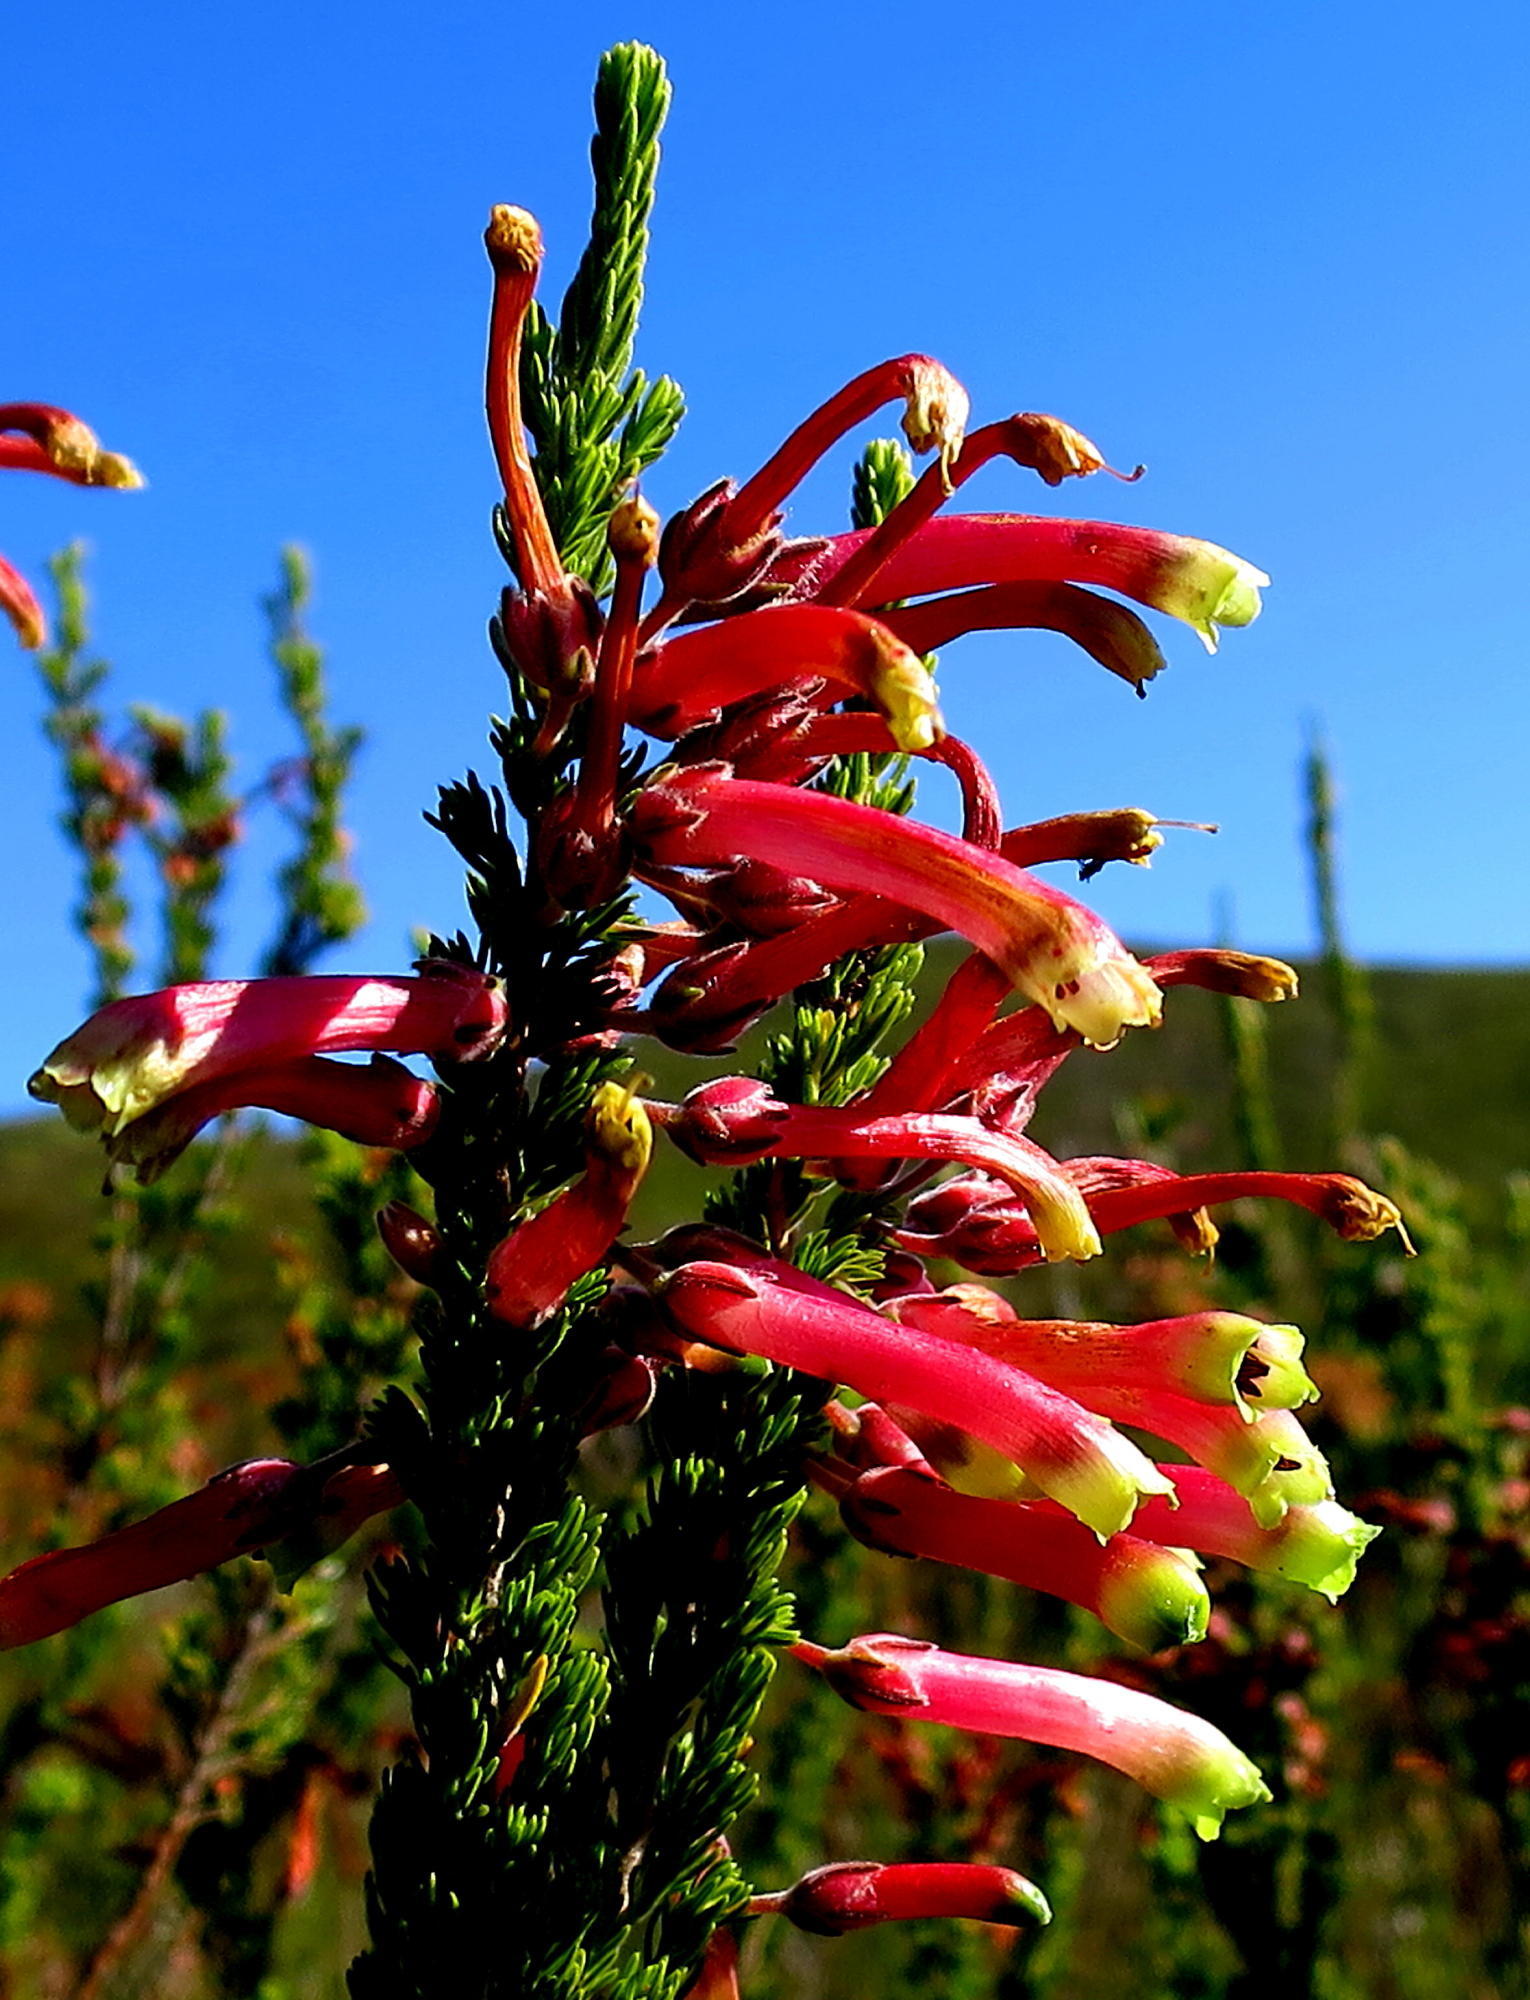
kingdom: Plantae
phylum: Tracheophyta
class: Magnoliopsida
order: Ericales
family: Ericaceae
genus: Erica
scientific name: Erica discolor
